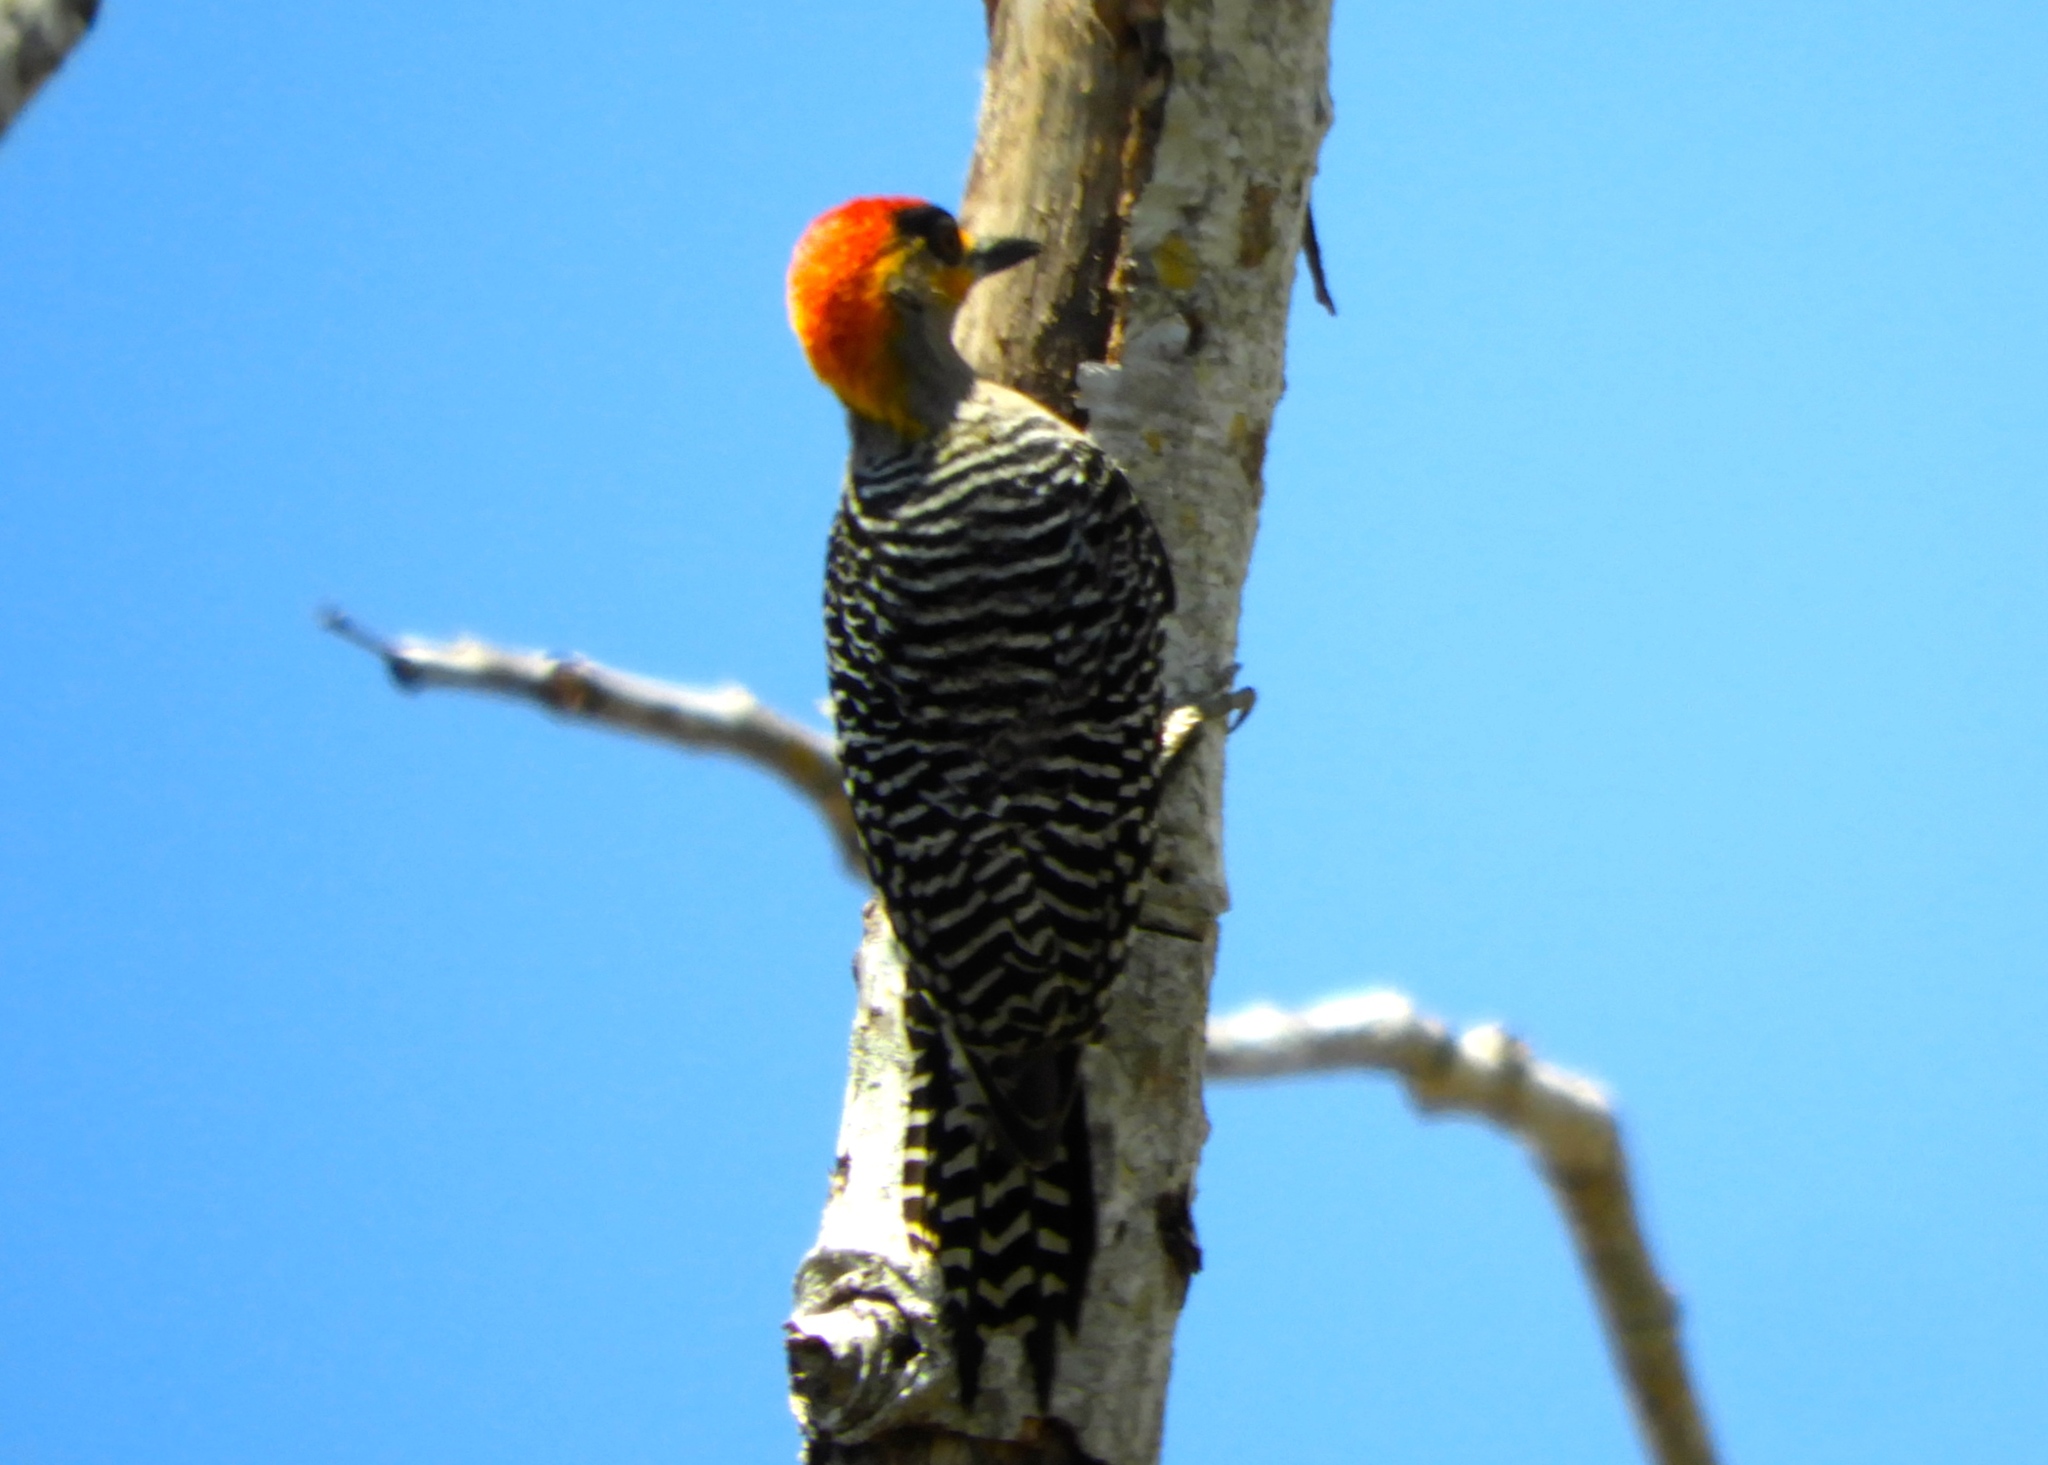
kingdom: Animalia
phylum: Chordata
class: Aves
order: Piciformes
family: Picidae
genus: Melanerpes
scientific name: Melanerpes chrysogenys
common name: Golden-cheeked woodpecker
